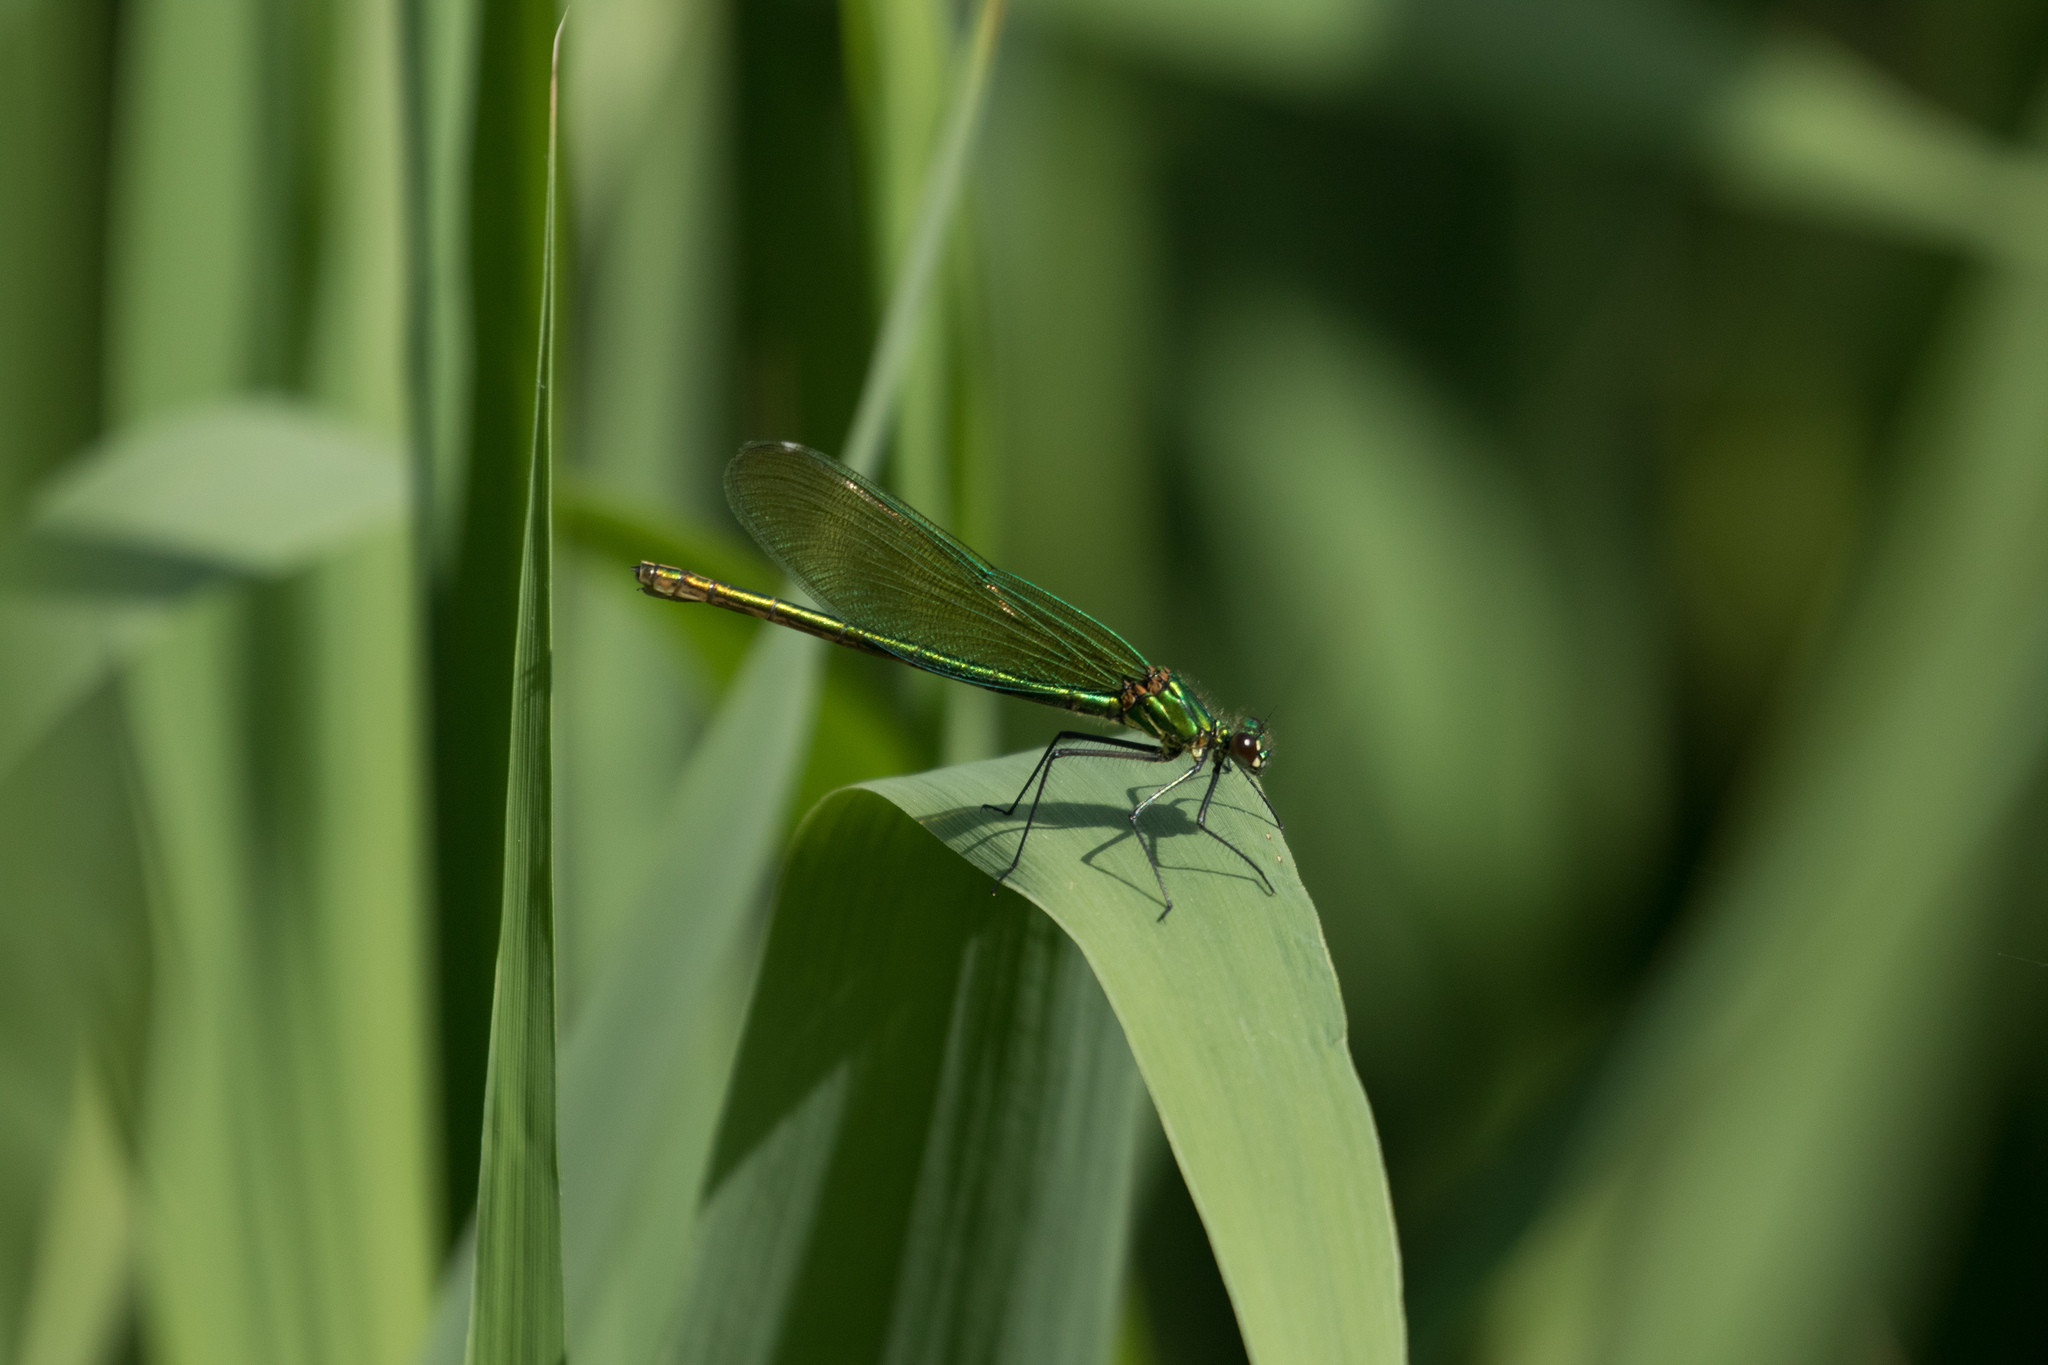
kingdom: Animalia
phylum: Arthropoda
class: Insecta
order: Odonata
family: Calopterygidae
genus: Calopteryx
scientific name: Calopteryx splendens
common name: Banded demoiselle
